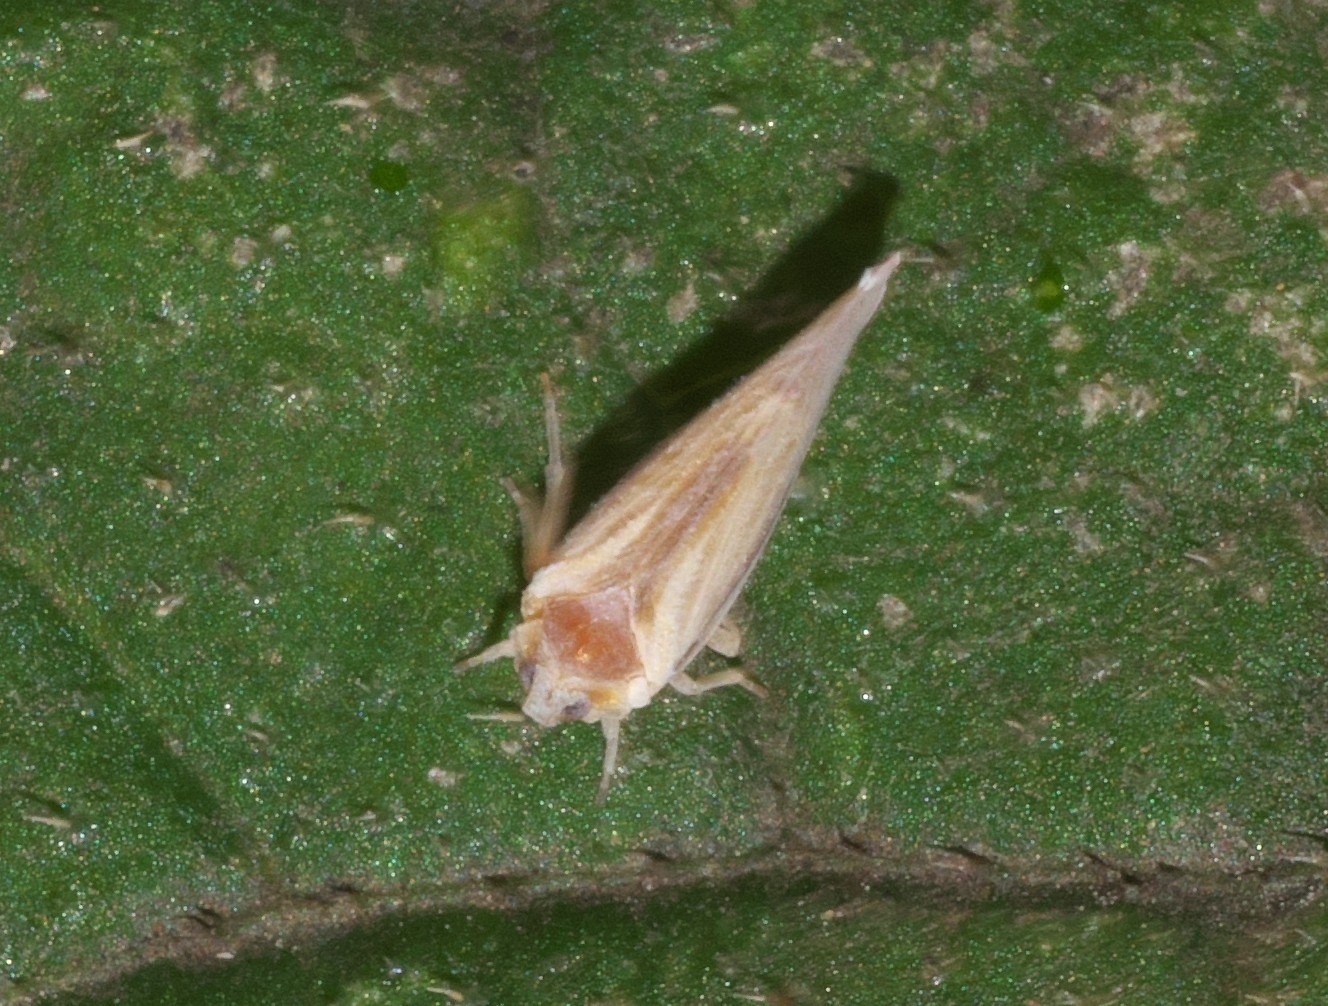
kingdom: Animalia
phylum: Arthropoda
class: Insecta
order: Hemiptera
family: Derbidae
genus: Omolicna
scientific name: Omolicna uhleri
